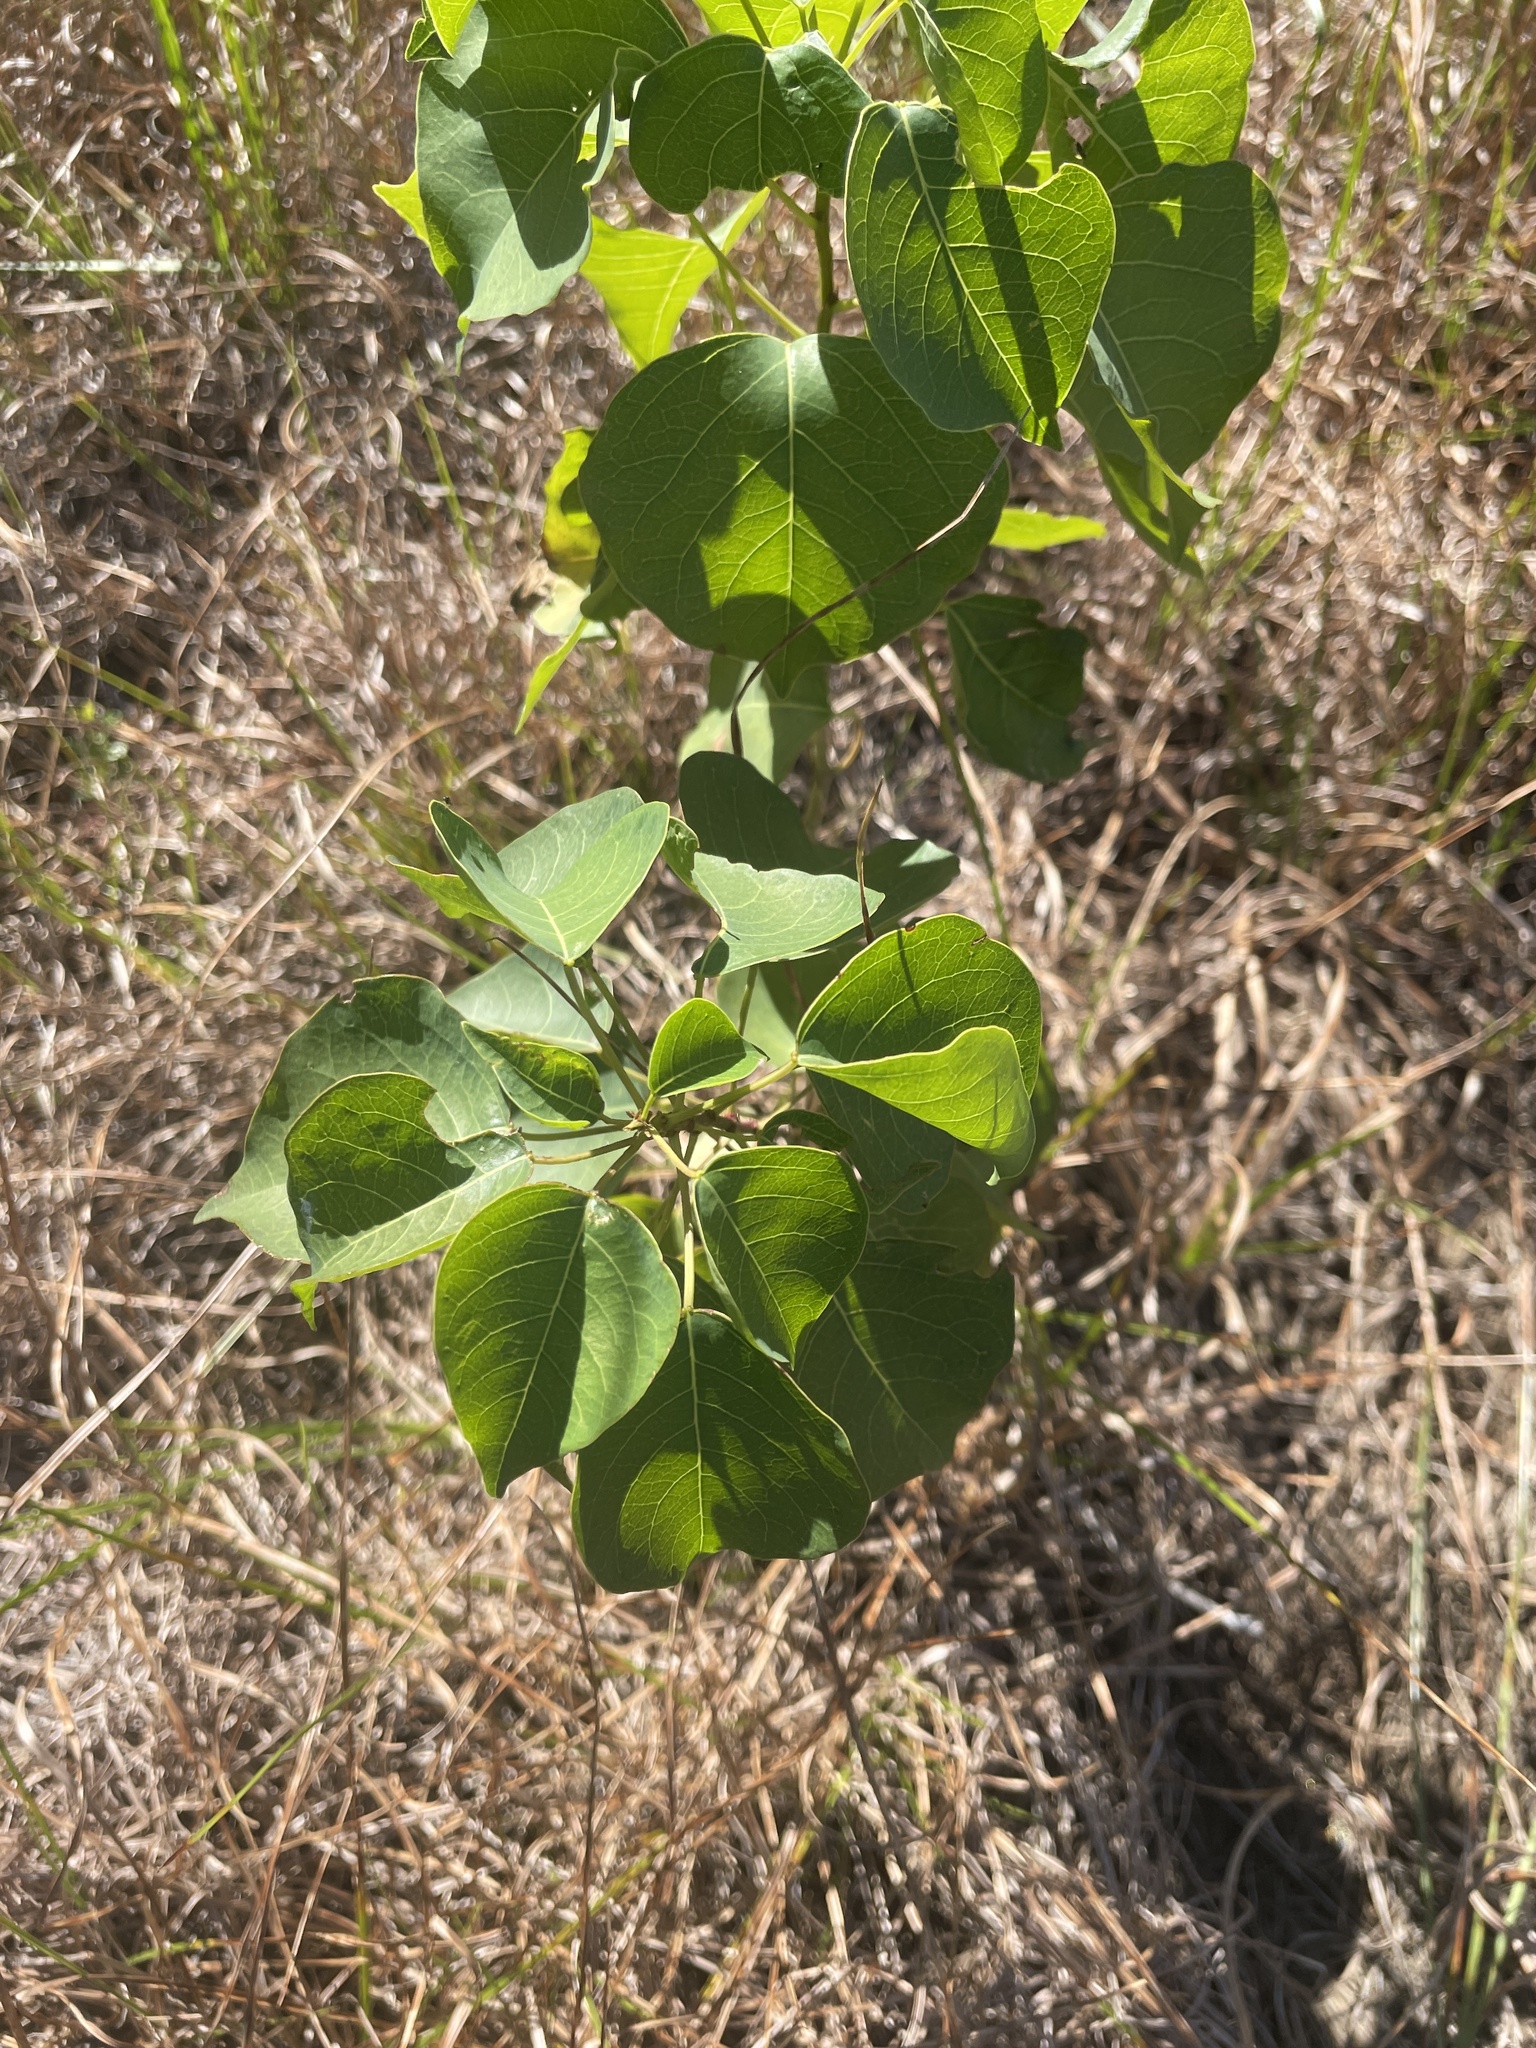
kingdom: Plantae
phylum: Tracheophyta
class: Magnoliopsida
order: Malpighiales
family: Euphorbiaceae
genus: Triadica
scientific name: Triadica sebifera
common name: Chinese tallow
